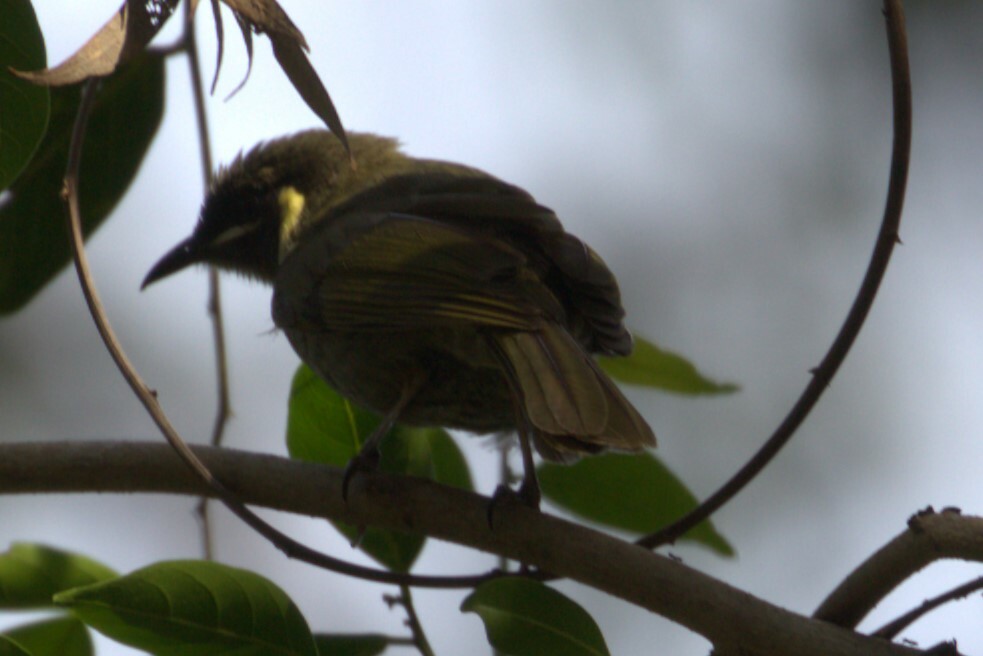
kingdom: Animalia
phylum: Chordata
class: Aves
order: Passeriformes
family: Meliphagidae
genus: Meliphaga
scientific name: Meliphaga lewinii
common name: Lewin's honeyeater
